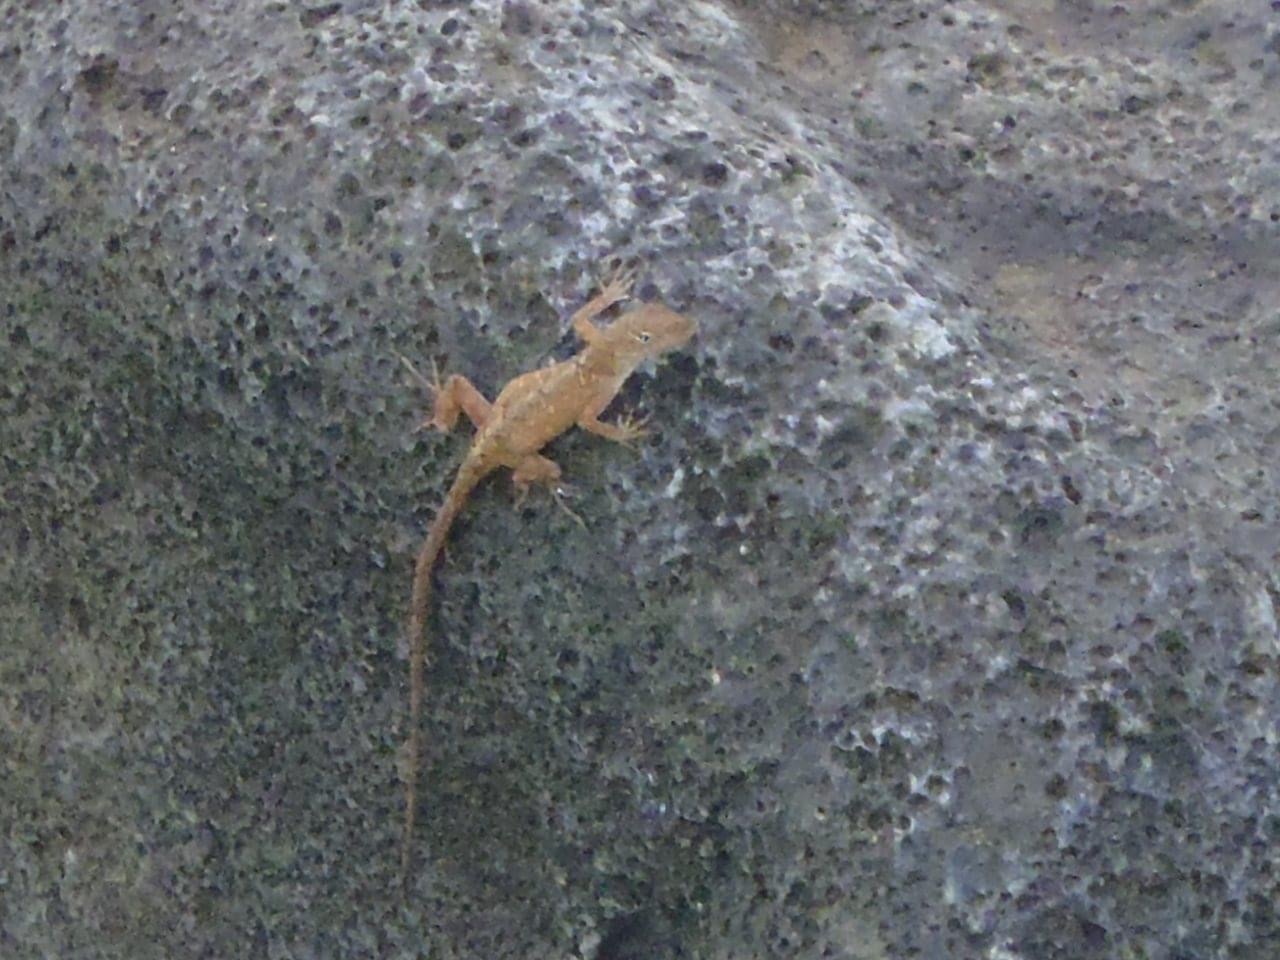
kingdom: Animalia
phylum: Chordata
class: Squamata
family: Dactyloidae
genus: Anolis
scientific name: Anolis sagrei
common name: Brown anole
